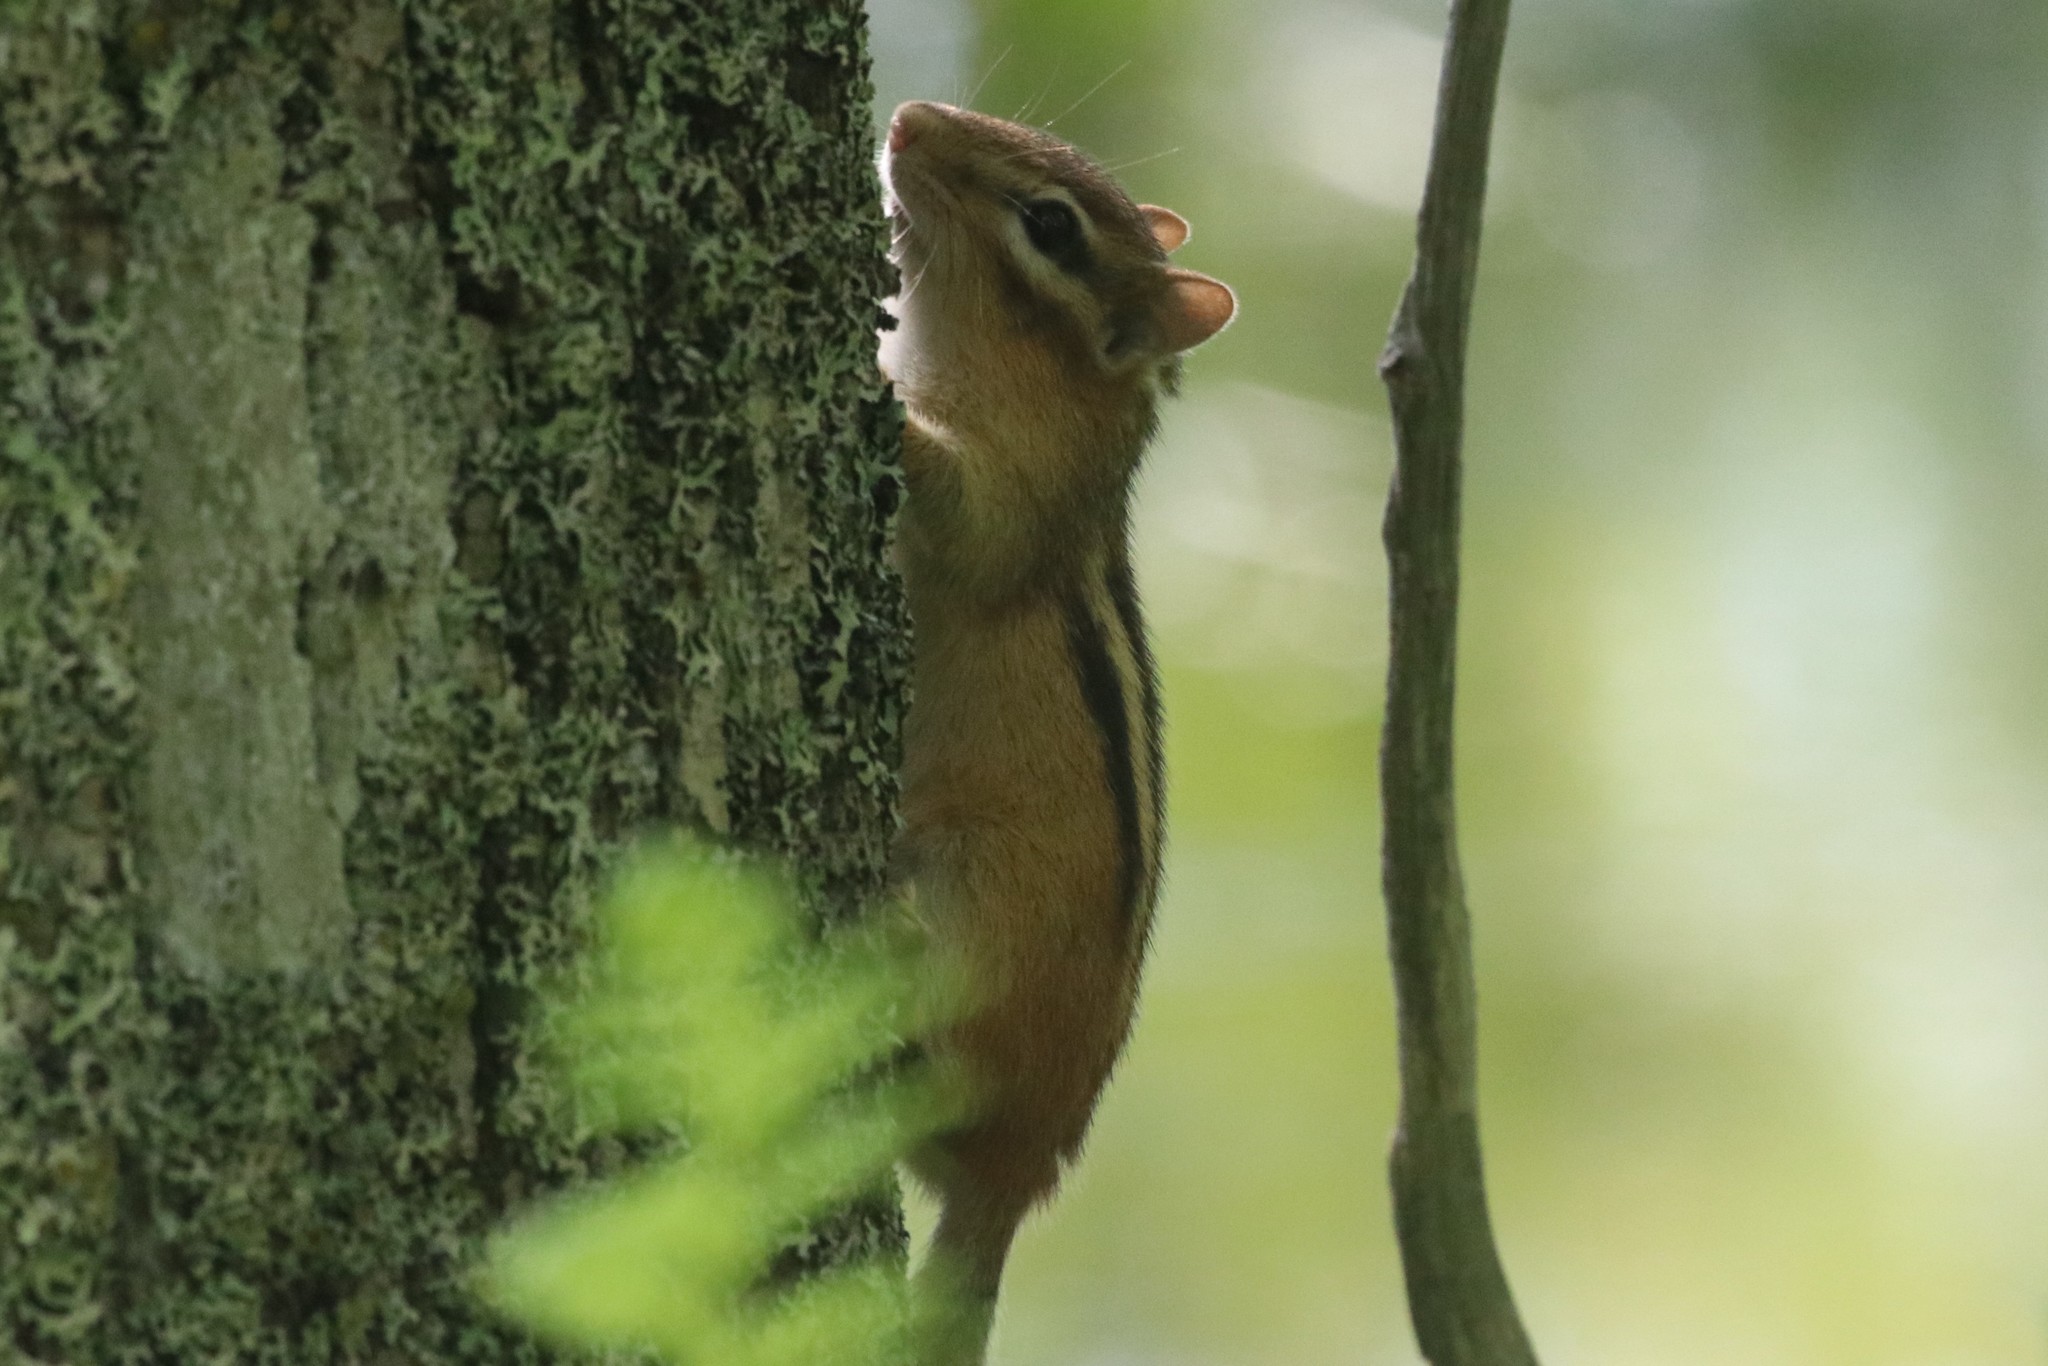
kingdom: Animalia
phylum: Chordata
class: Mammalia
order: Rodentia
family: Sciuridae
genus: Tamias
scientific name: Tamias striatus
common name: Eastern chipmunk
